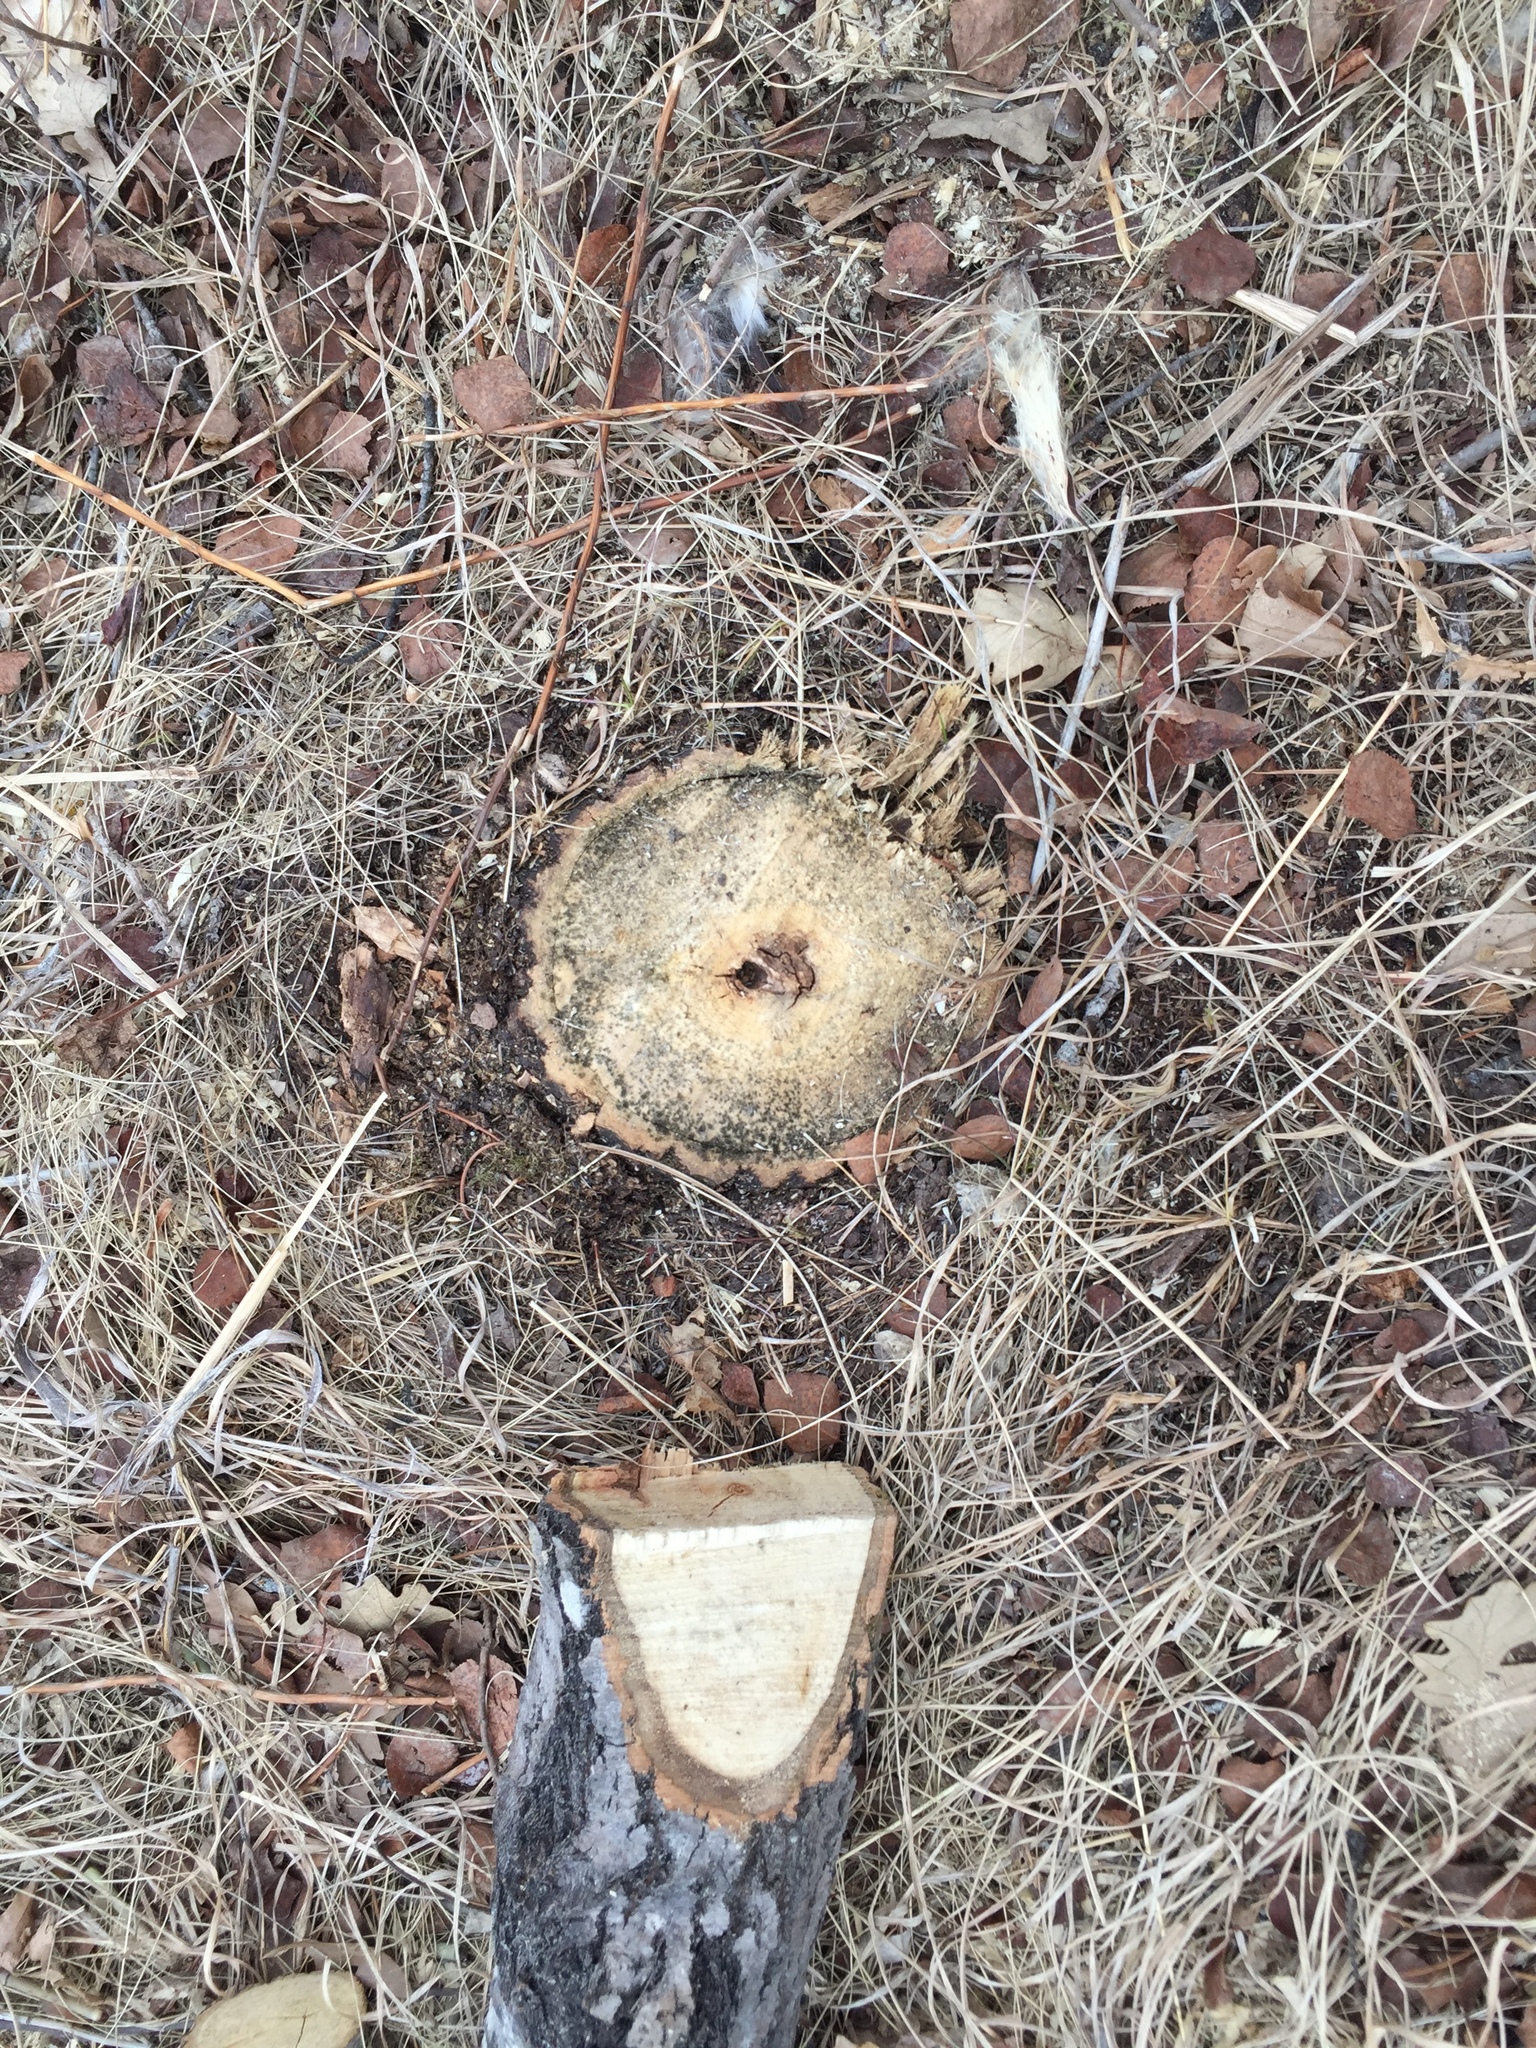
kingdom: Plantae
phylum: Tracheophyta
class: Magnoliopsida
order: Fagales
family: Fagaceae
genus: Quercus
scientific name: Quercus macrocarpa
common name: Bur oak
